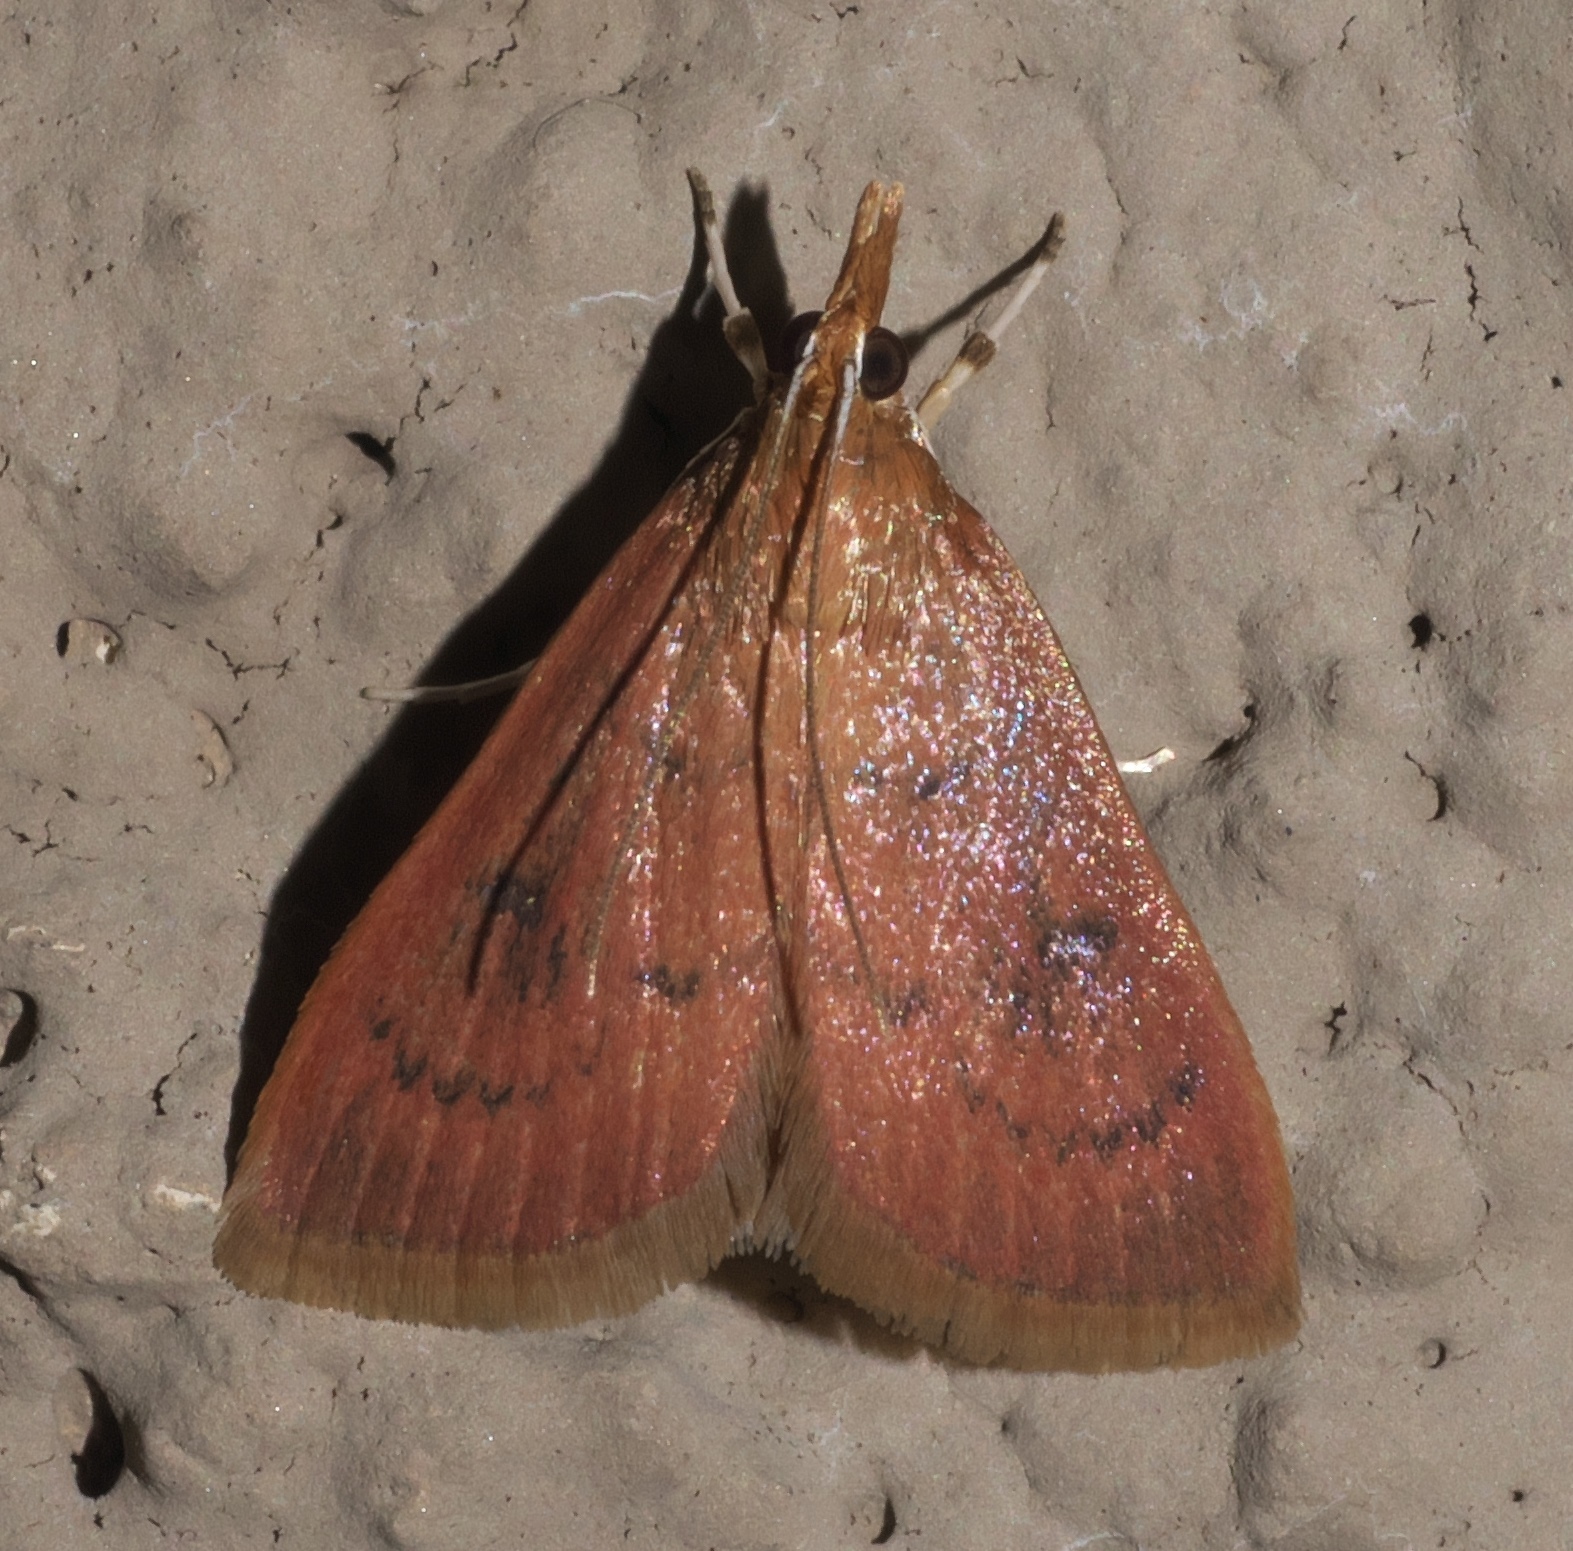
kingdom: Animalia
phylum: Arthropoda
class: Insecta
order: Lepidoptera
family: Crambidae
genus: Oenobotys
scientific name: Oenobotys vinotinctalis
